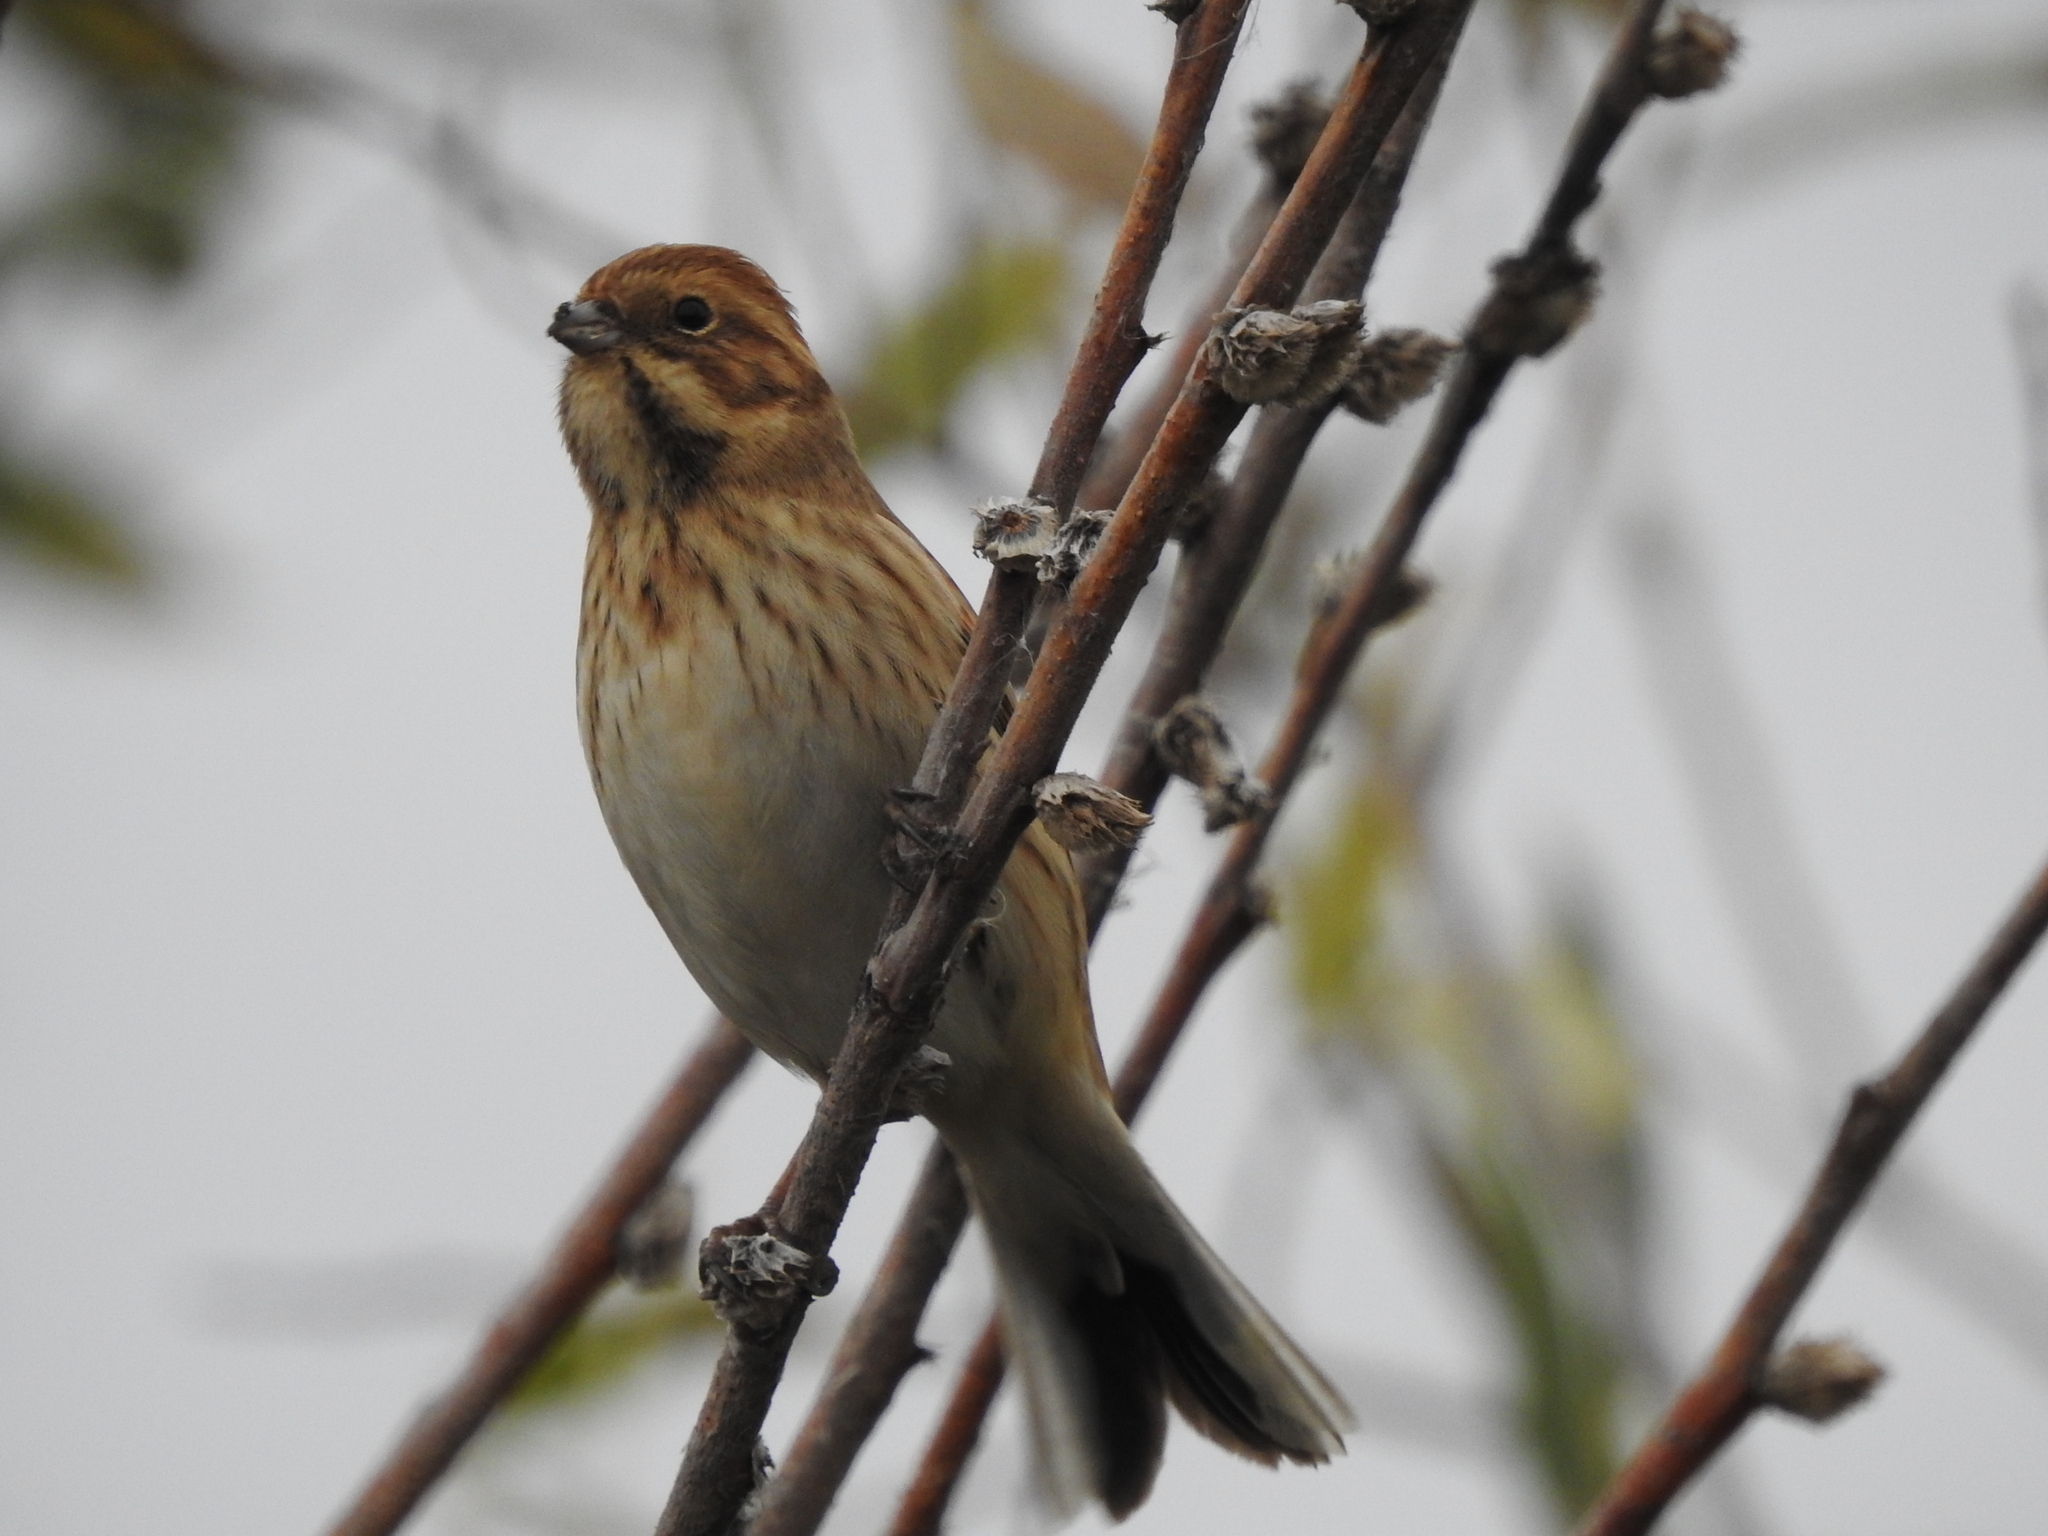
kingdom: Animalia
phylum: Chordata
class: Aves
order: Passeriformes
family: Emberizidae
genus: Emberiza
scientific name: Emberiza schoeniclus
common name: Reed bunting
